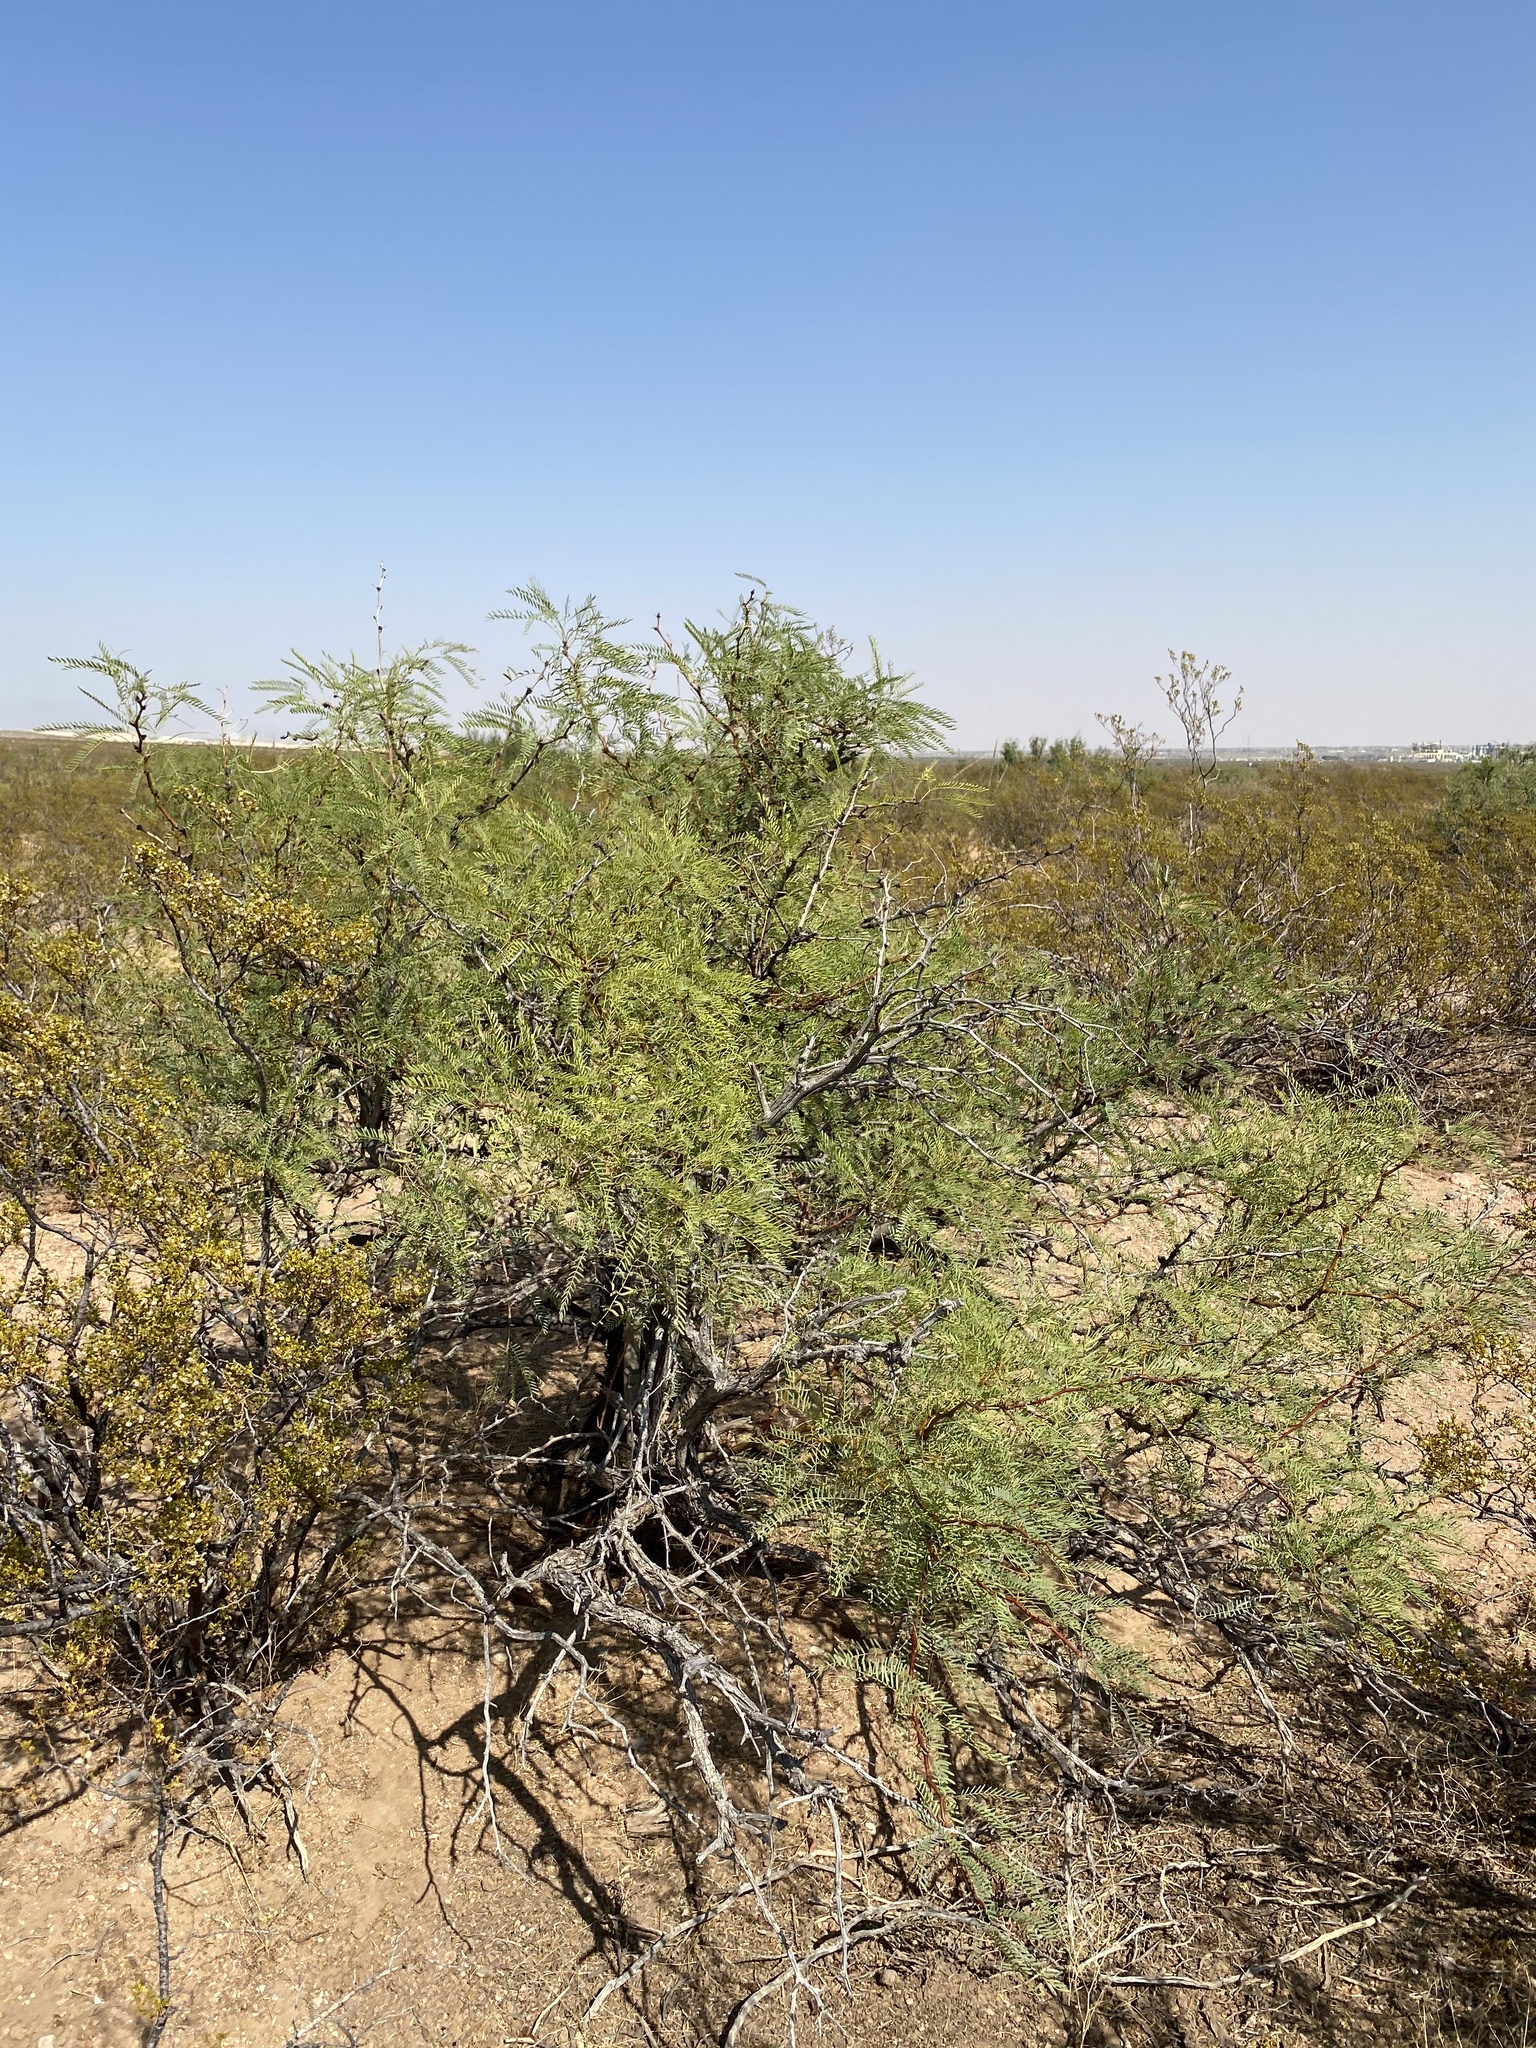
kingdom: Plantae
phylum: Tracheophyta
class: Magnoliopsida
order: Fabales
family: Fabaceae
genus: Prosopis
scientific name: Prosopis glandulosa
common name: Honey mesquite
